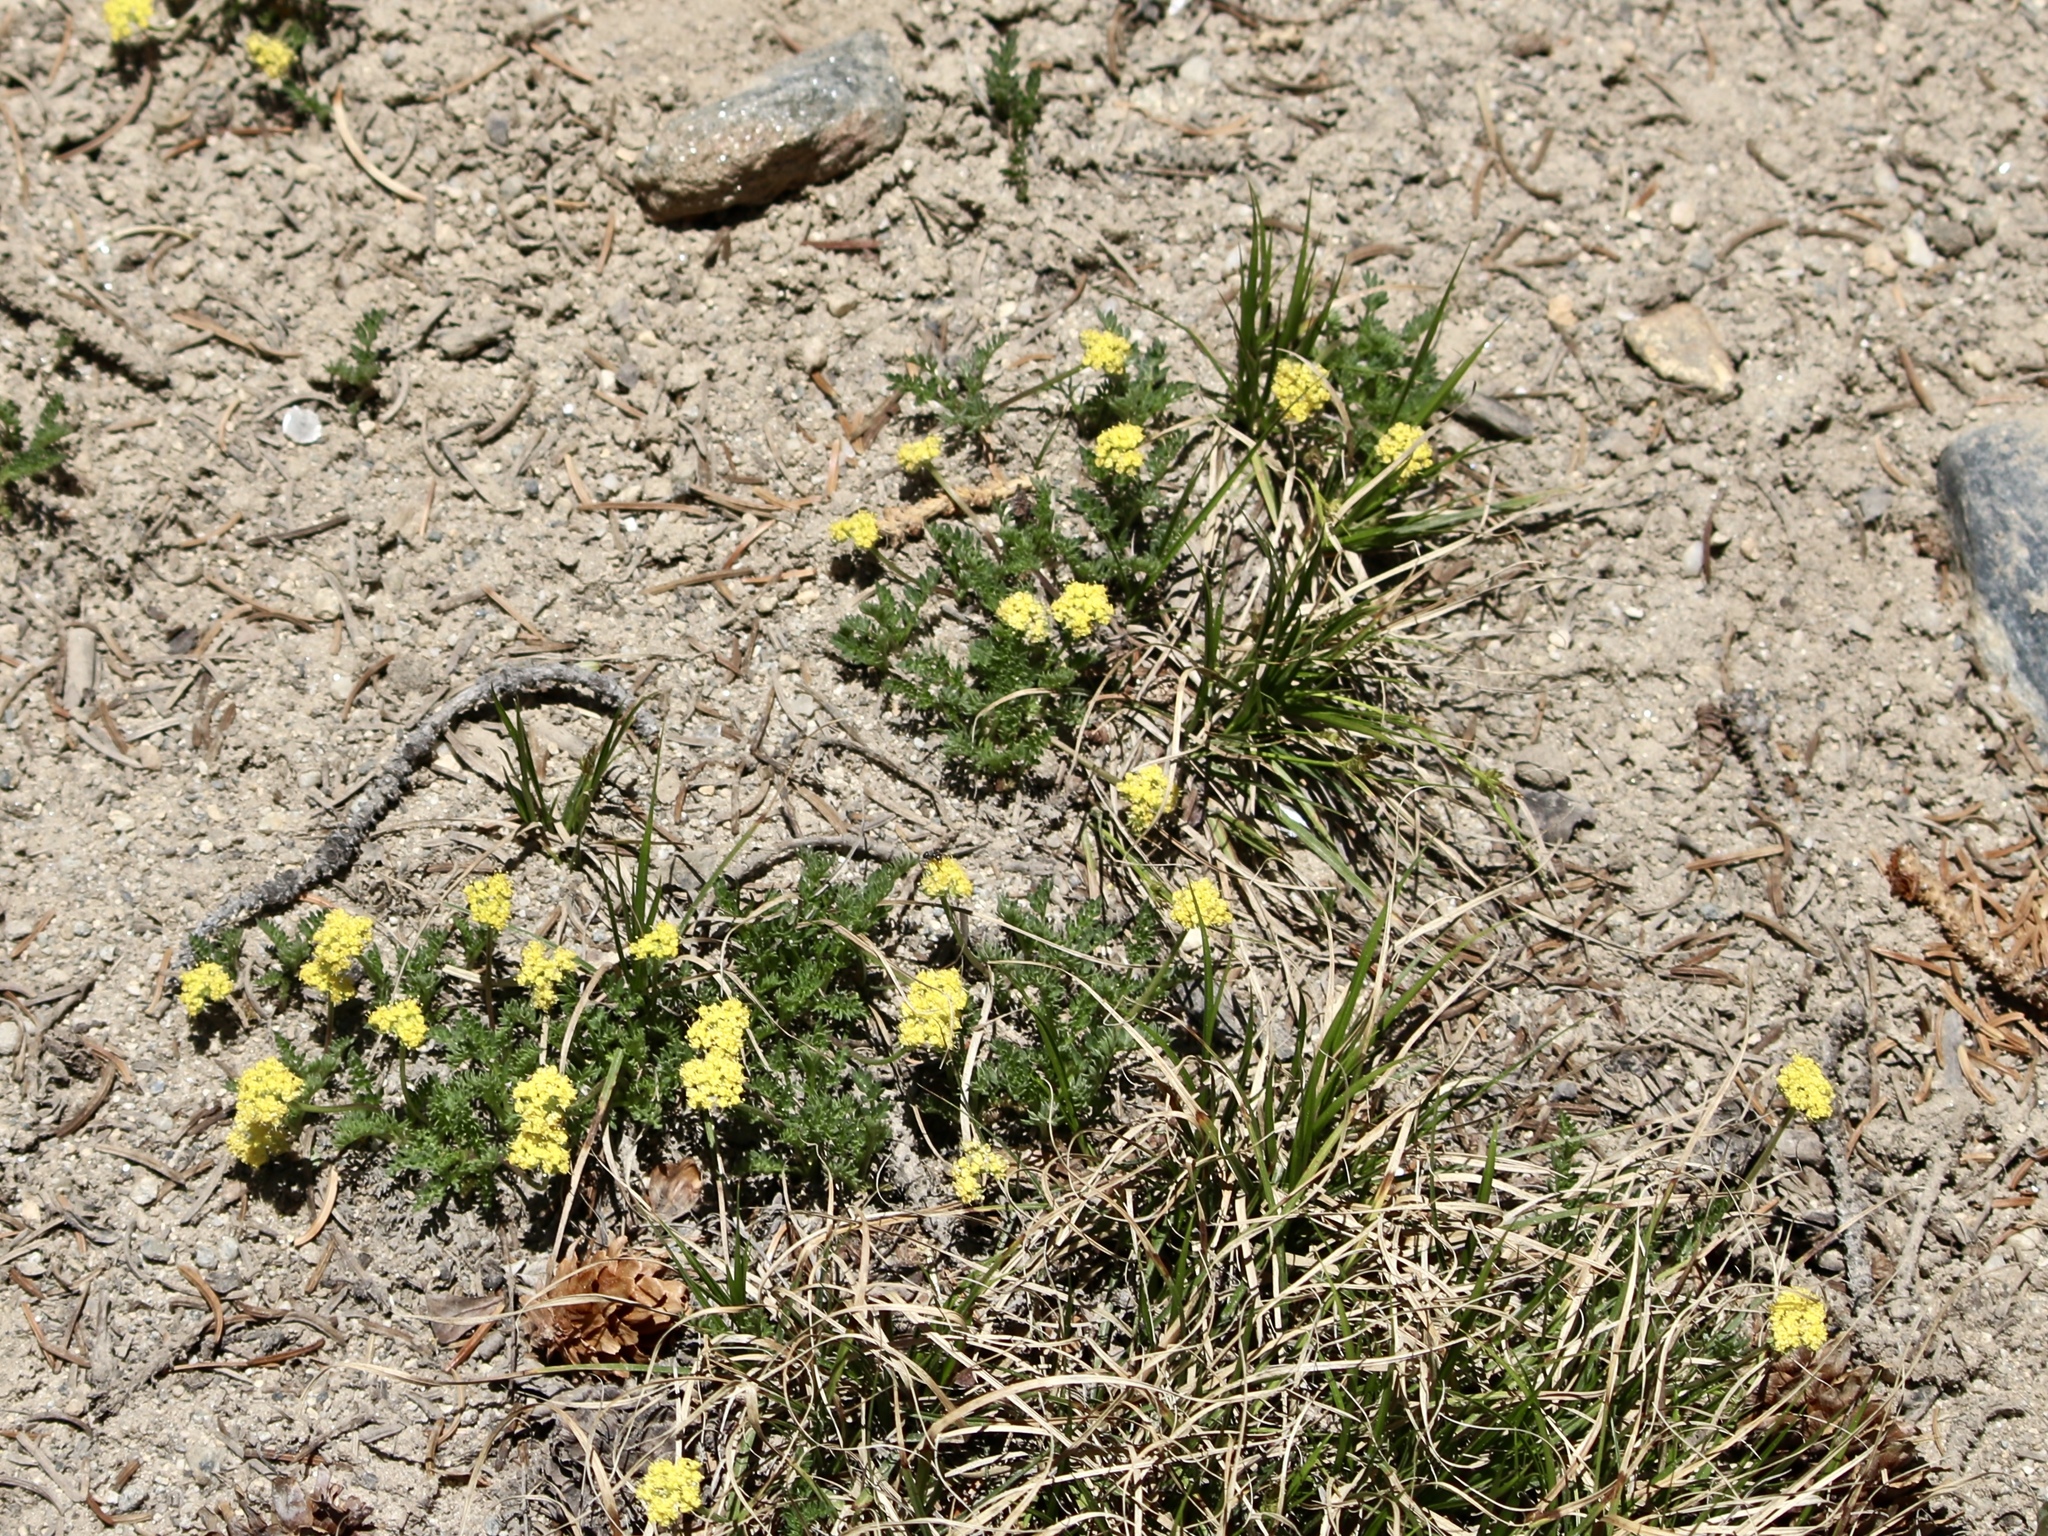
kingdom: Plantae
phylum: Tracheophyta
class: Magnoliopsida
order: Apiales
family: Apiaceae
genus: Oreoxis
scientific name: Oreoxis alpina
